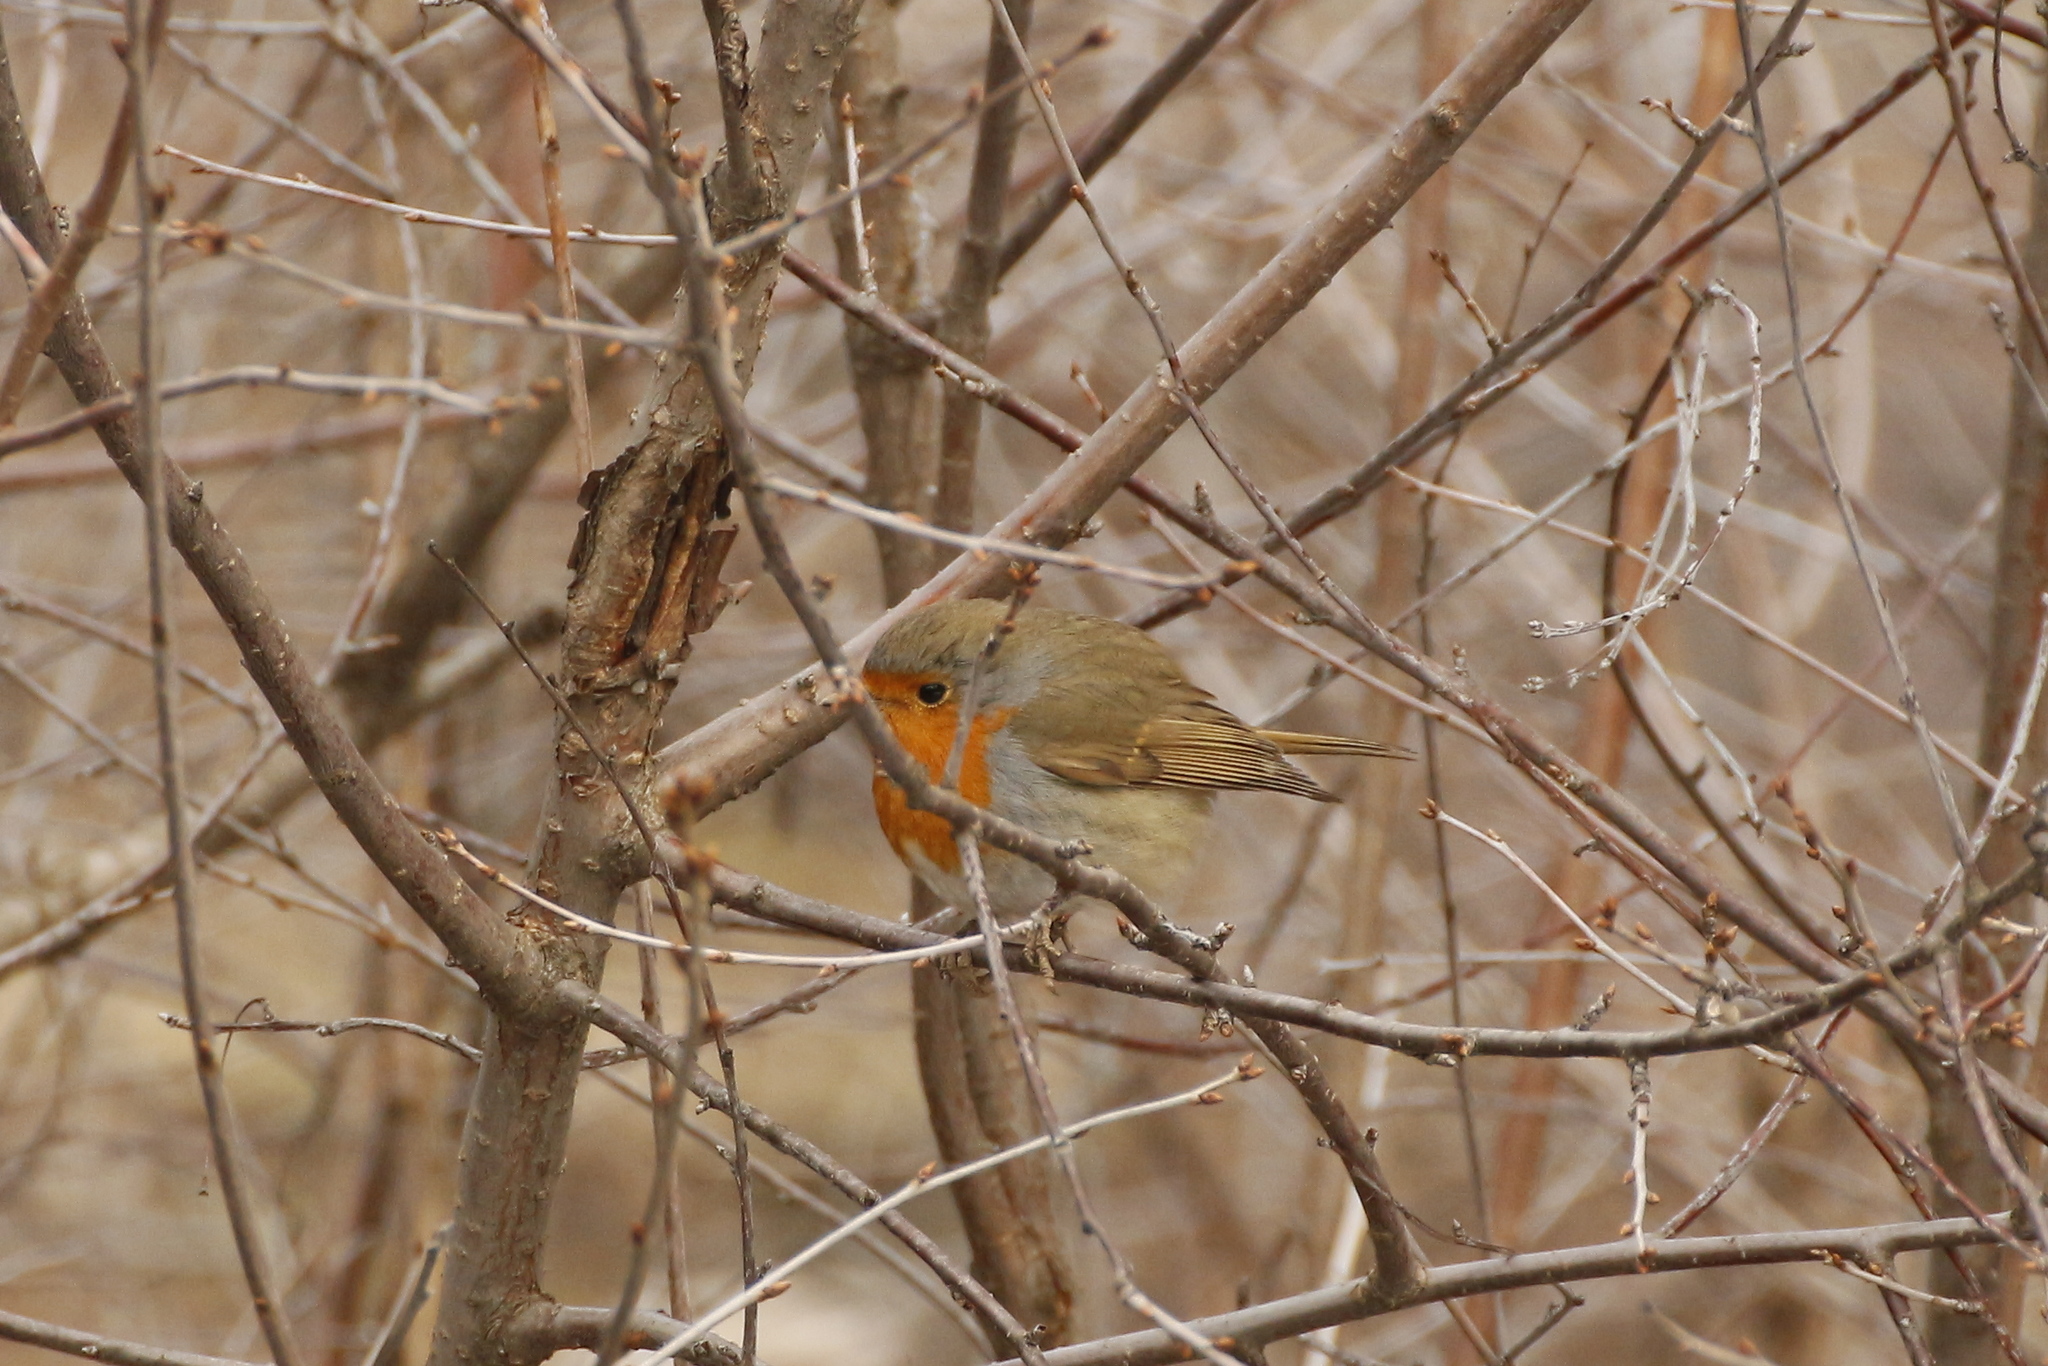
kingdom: Animalia
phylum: Chordata
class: Aves
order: Passeriformes
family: Muscicapidae
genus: Erithacus
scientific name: Erithacus rubecula
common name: European robin
